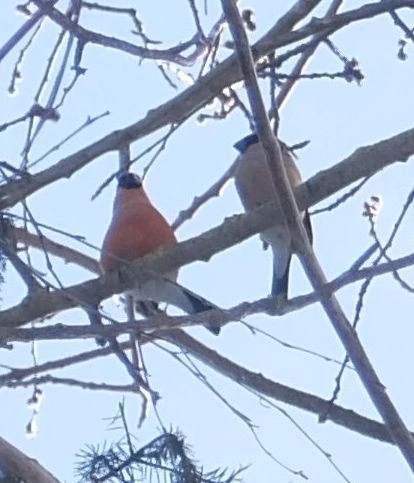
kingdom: Animalia
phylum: Chordata
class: Aves
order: Passeriformes
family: Fringillidae
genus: Pyrrhula
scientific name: Pyrrhula pyrrhula
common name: Eurasian bullfinch
